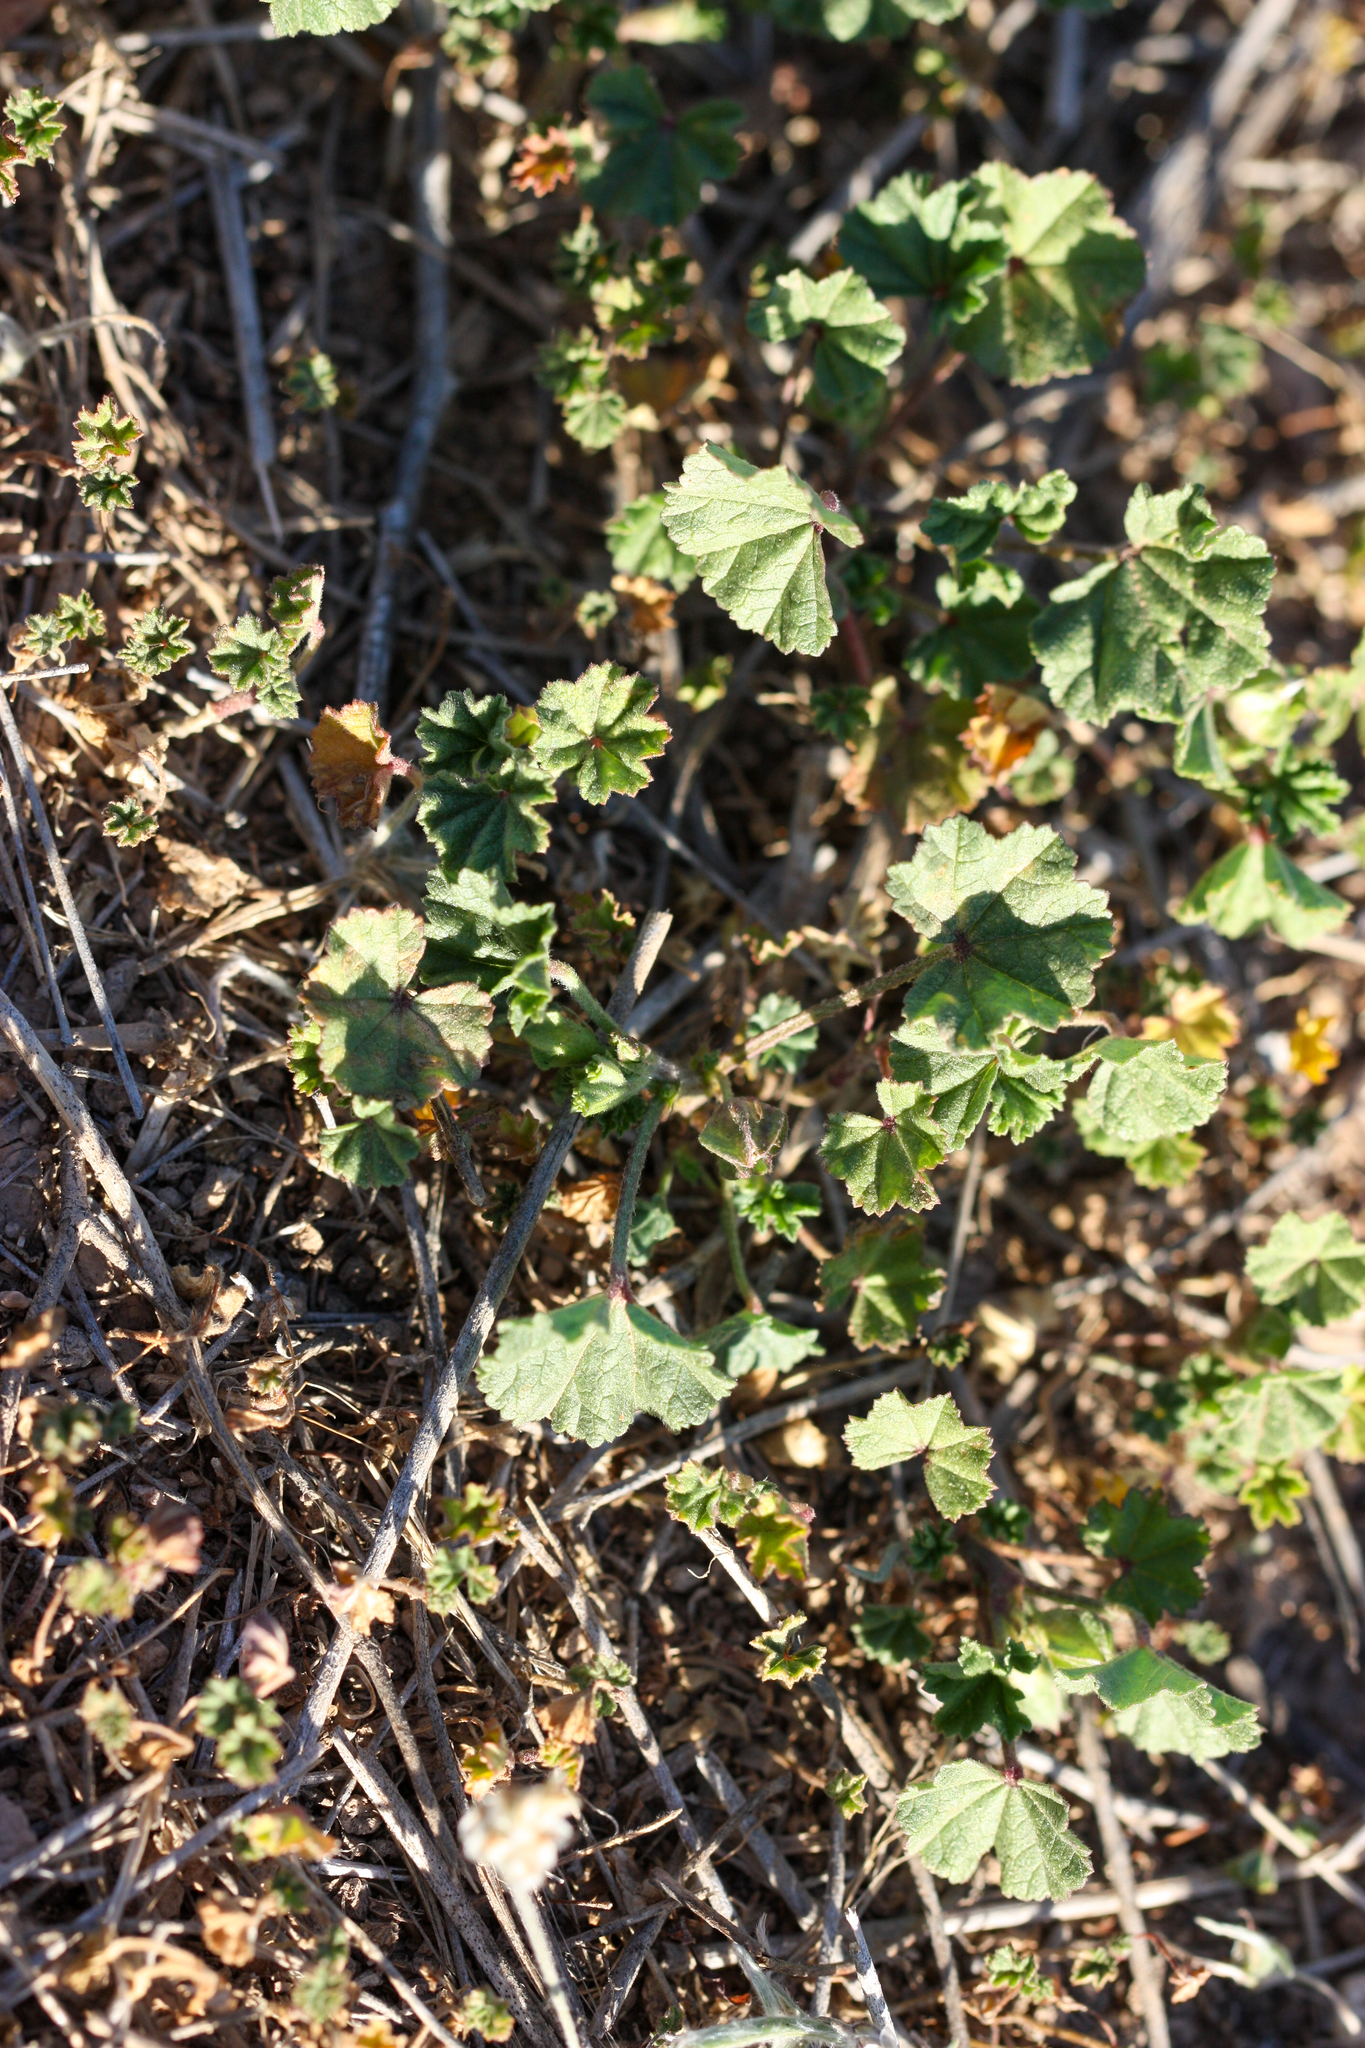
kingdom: Plantae
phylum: Tracheophyta
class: Magnoliopsida
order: Malvales
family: Malvaceae
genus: Malva
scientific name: Malva parviflora
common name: Least mallow
